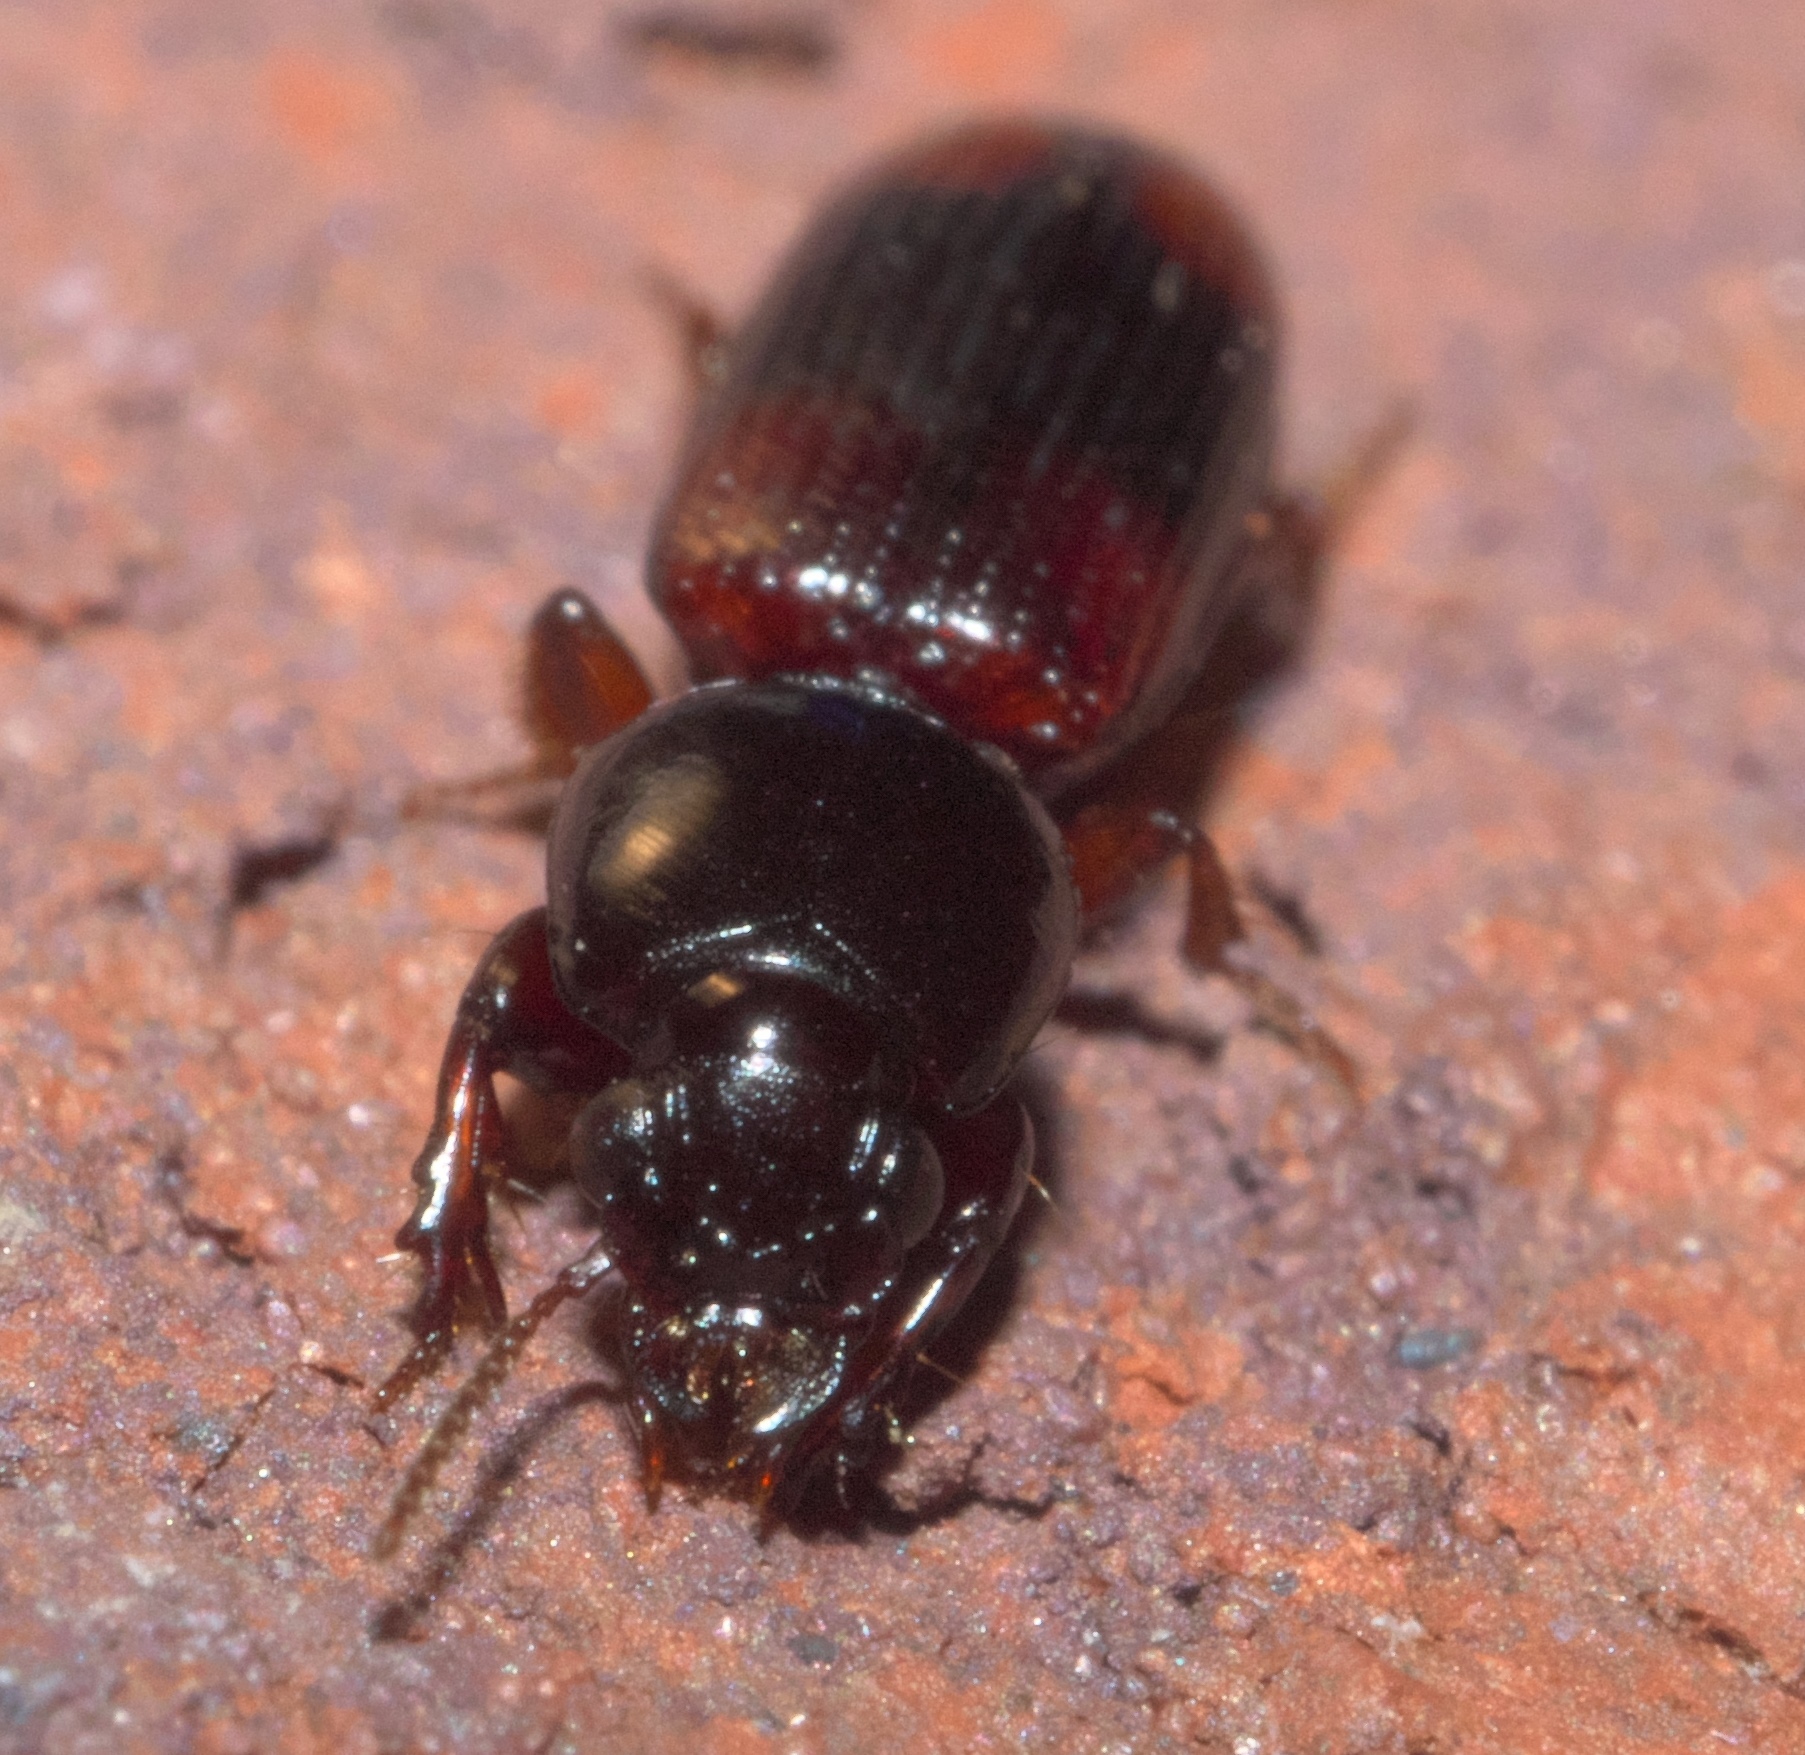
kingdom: Animalia
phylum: Arthropoda
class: Insecta
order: Coleoptera
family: Carabidae
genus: Clivina
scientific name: Clivina bipustulata
